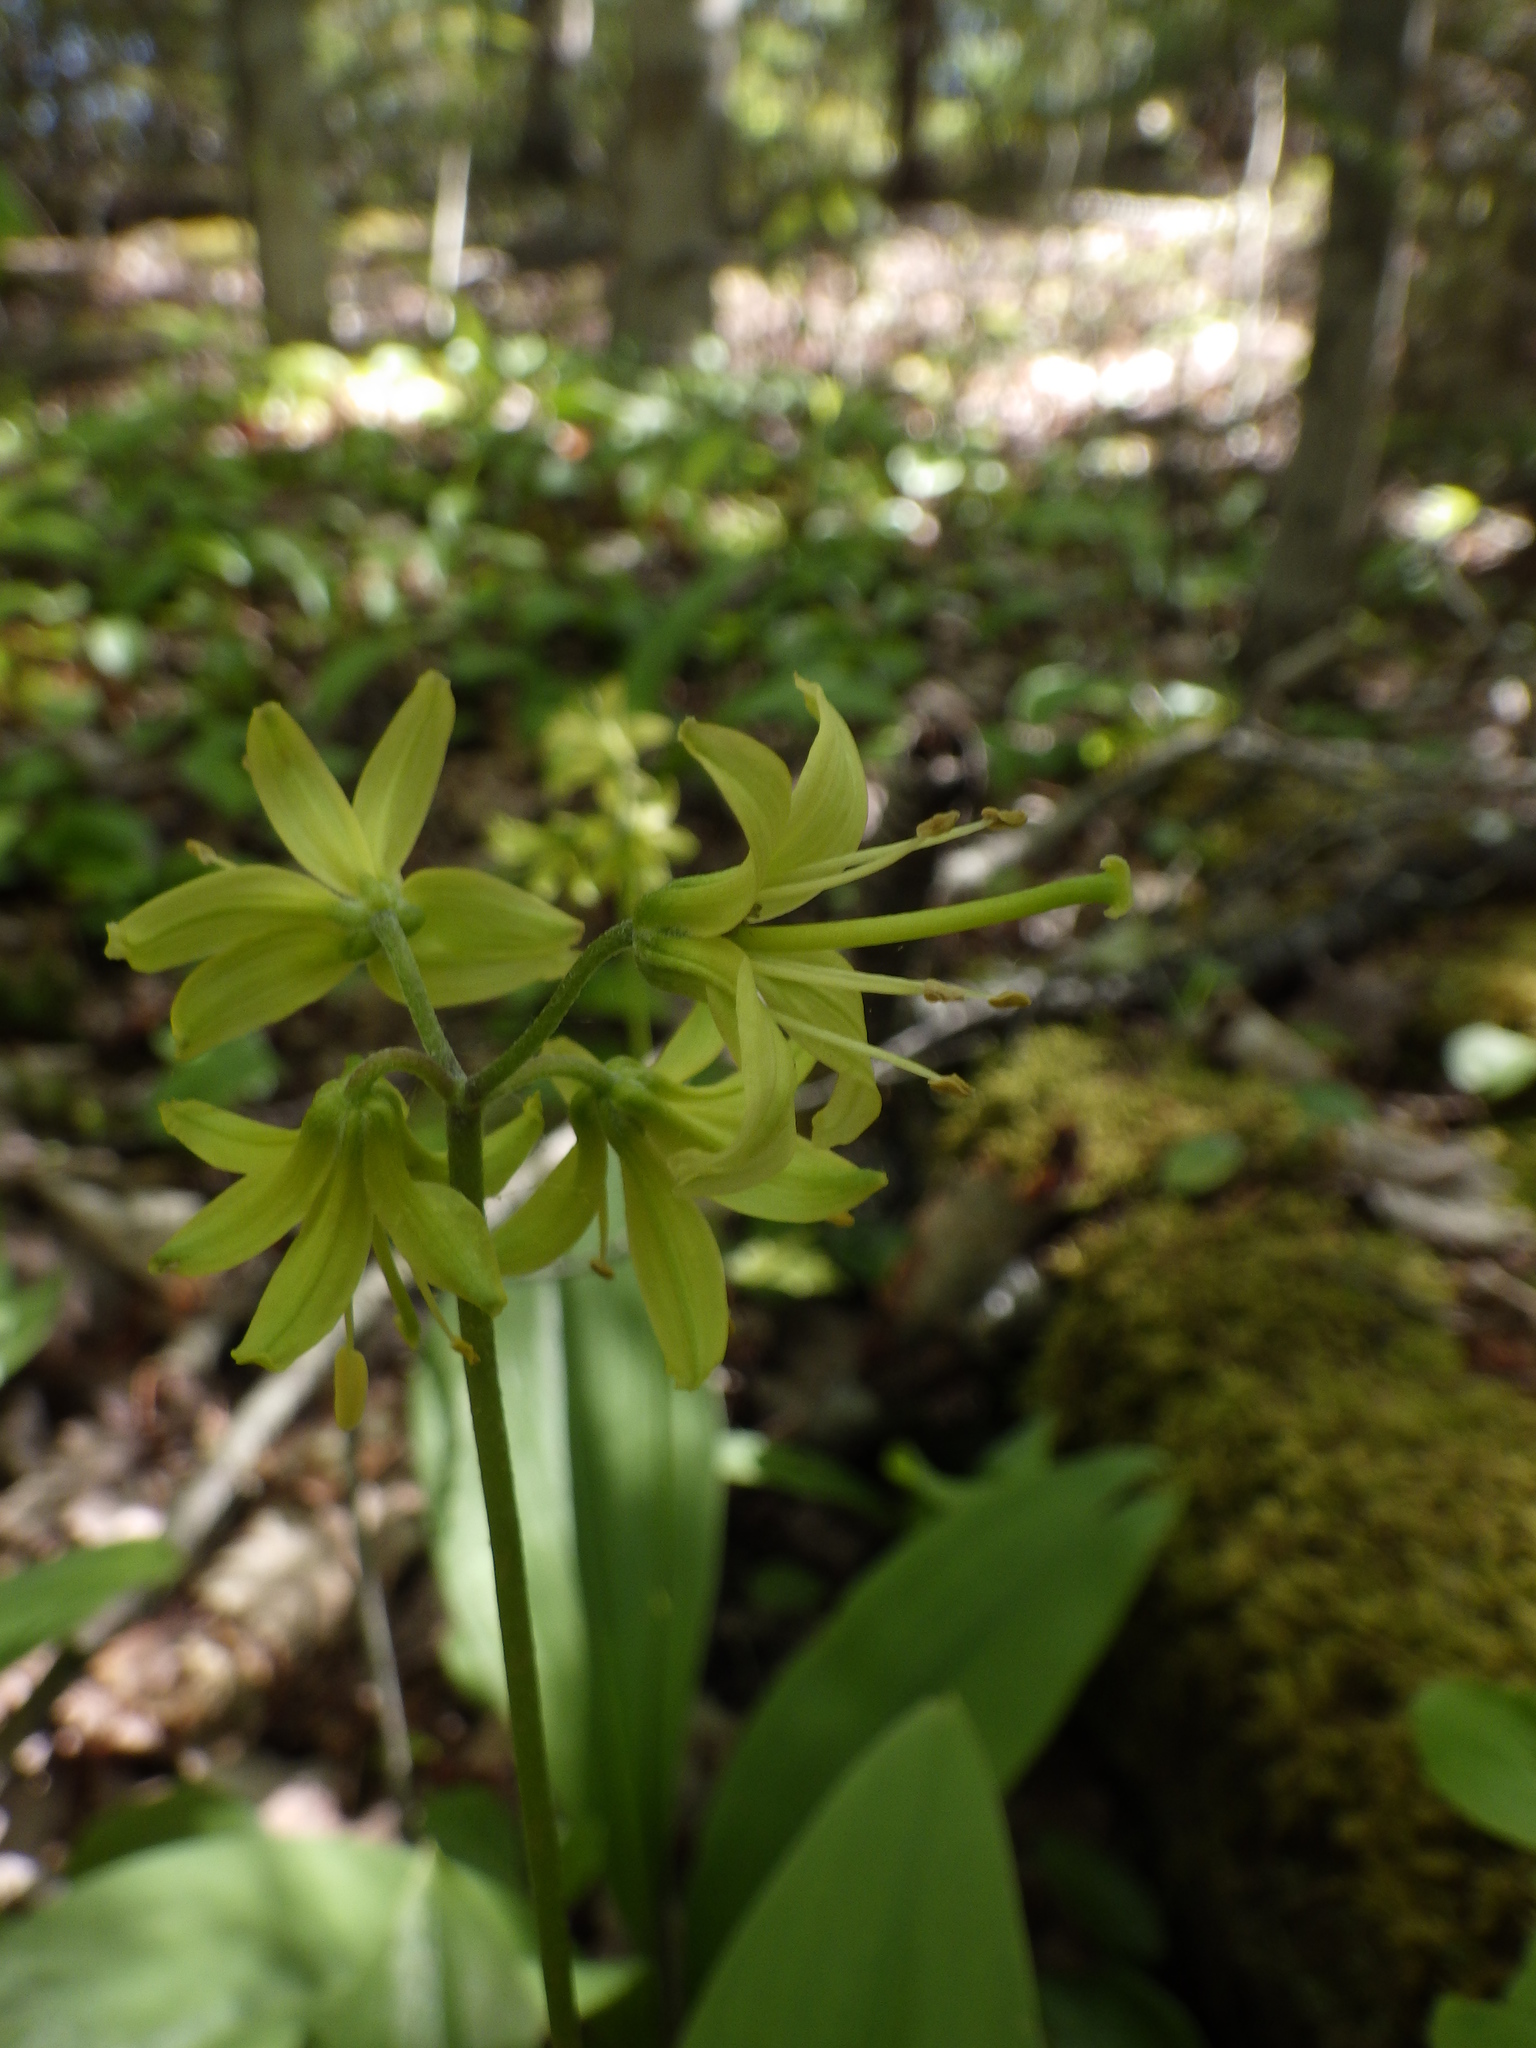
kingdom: Plantae
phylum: Tracheophyta
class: Liliopsida
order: Liliales
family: Liliaceae
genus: Clintonia
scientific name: Clintonia borealis
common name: Yellow clintonia
